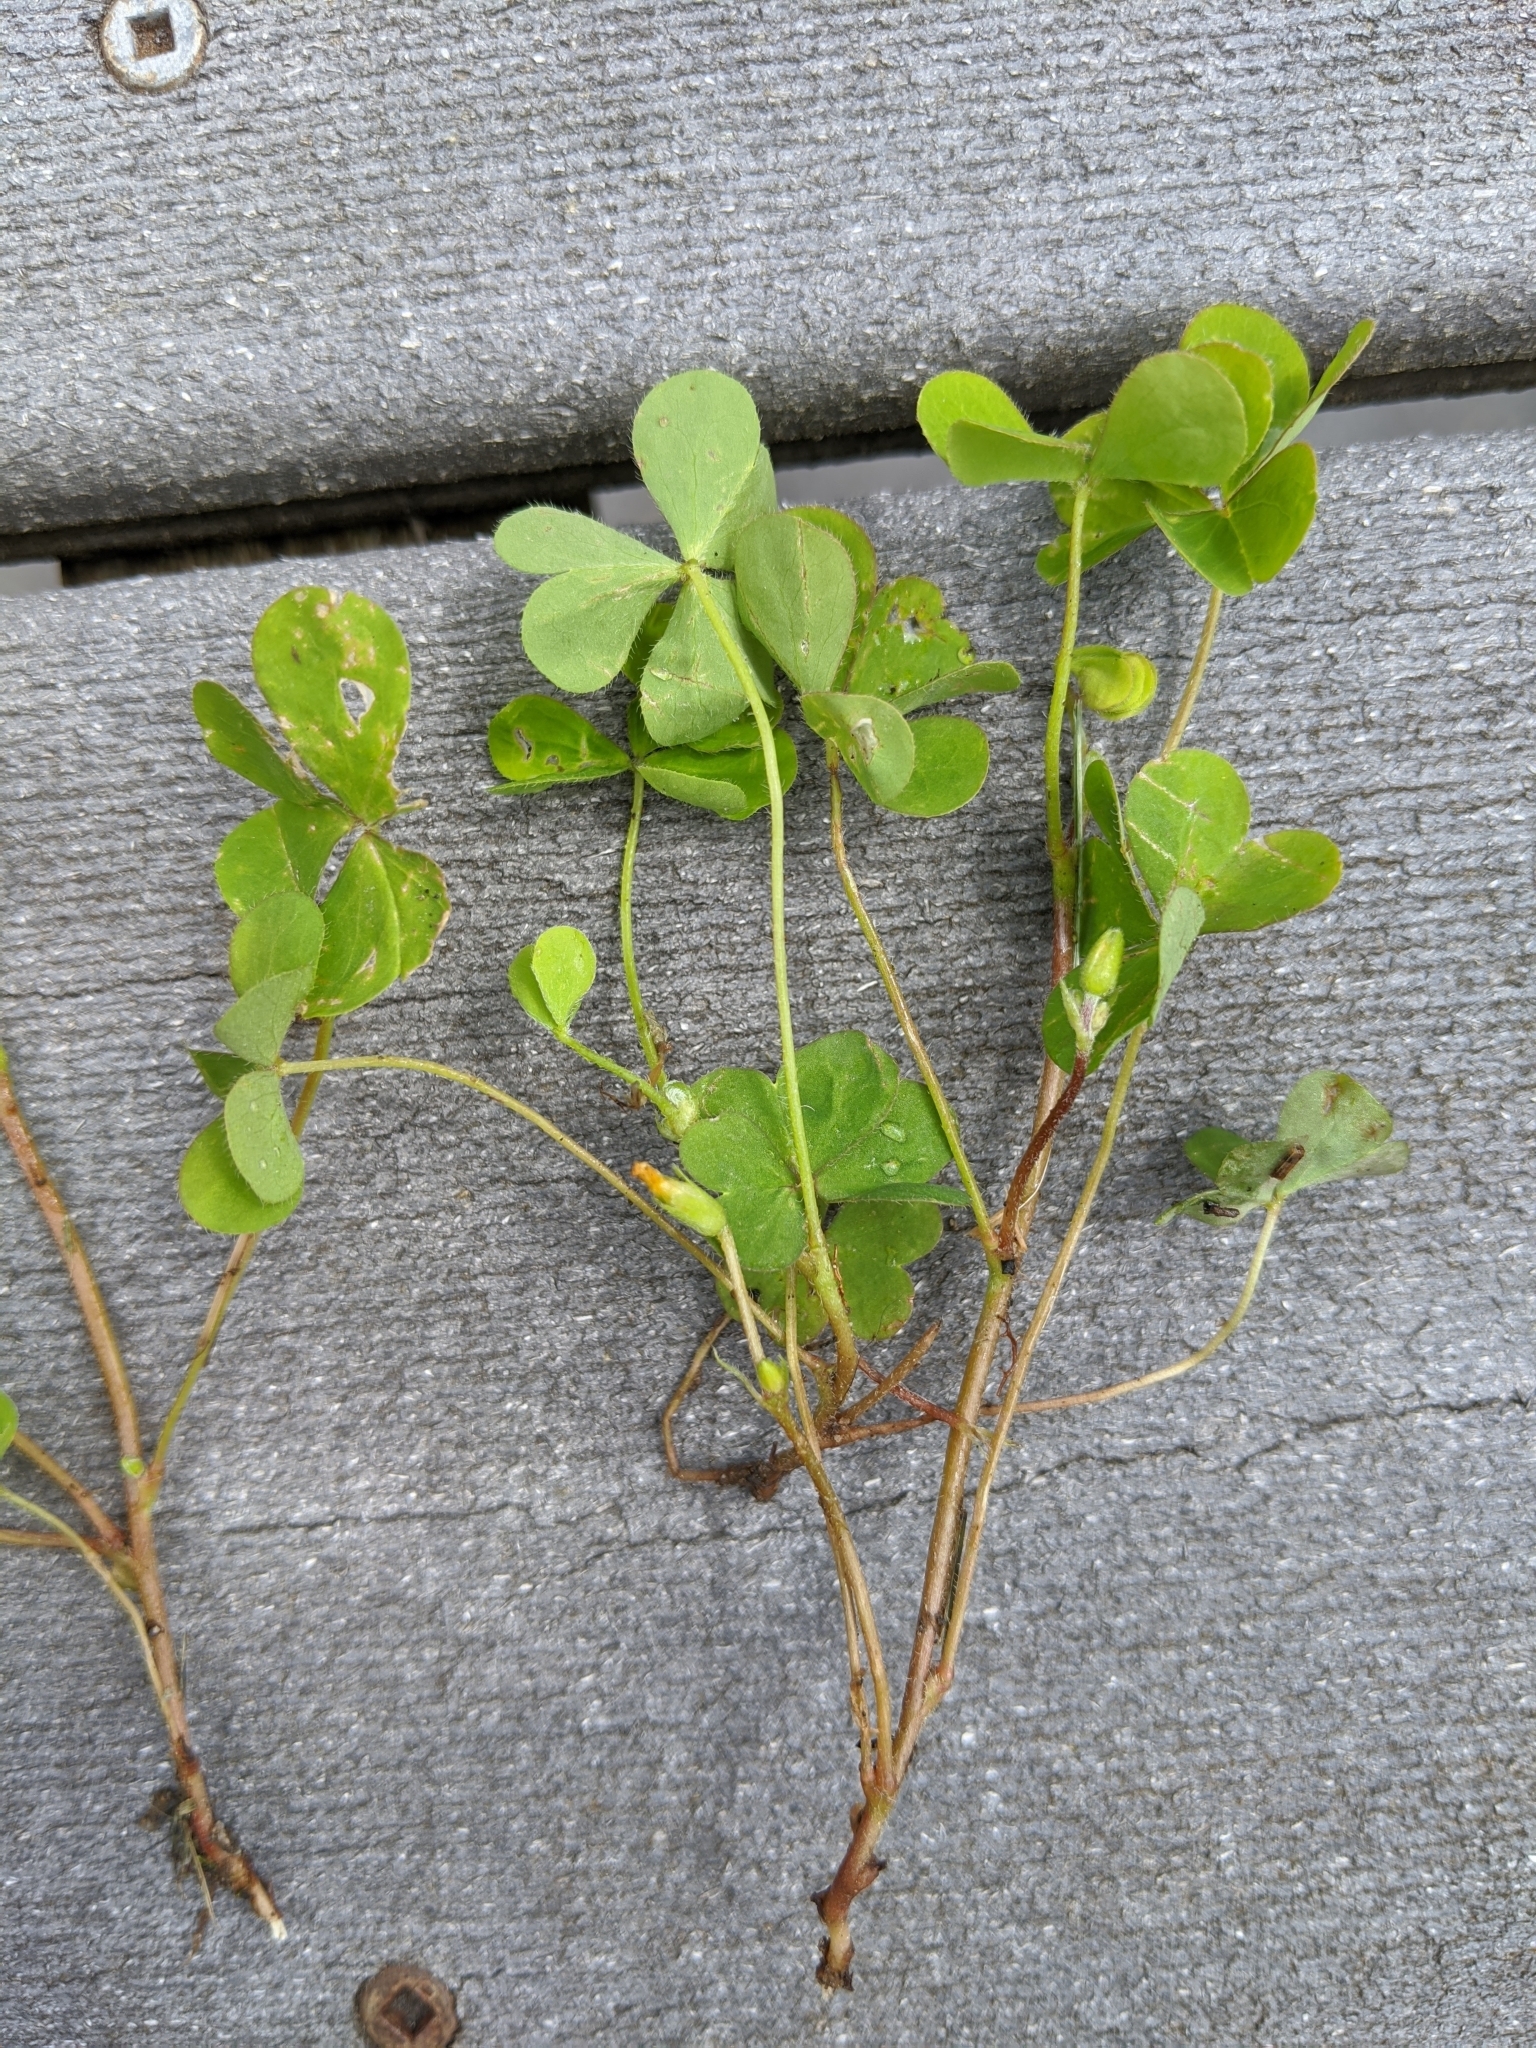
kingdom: Plantae
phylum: Tracheophyta
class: Magnoliopsida
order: Oxalidales
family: Oxalidaceae
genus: Oxalis
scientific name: Oxalis corniculata
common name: Procumbent yellow-sorrel
